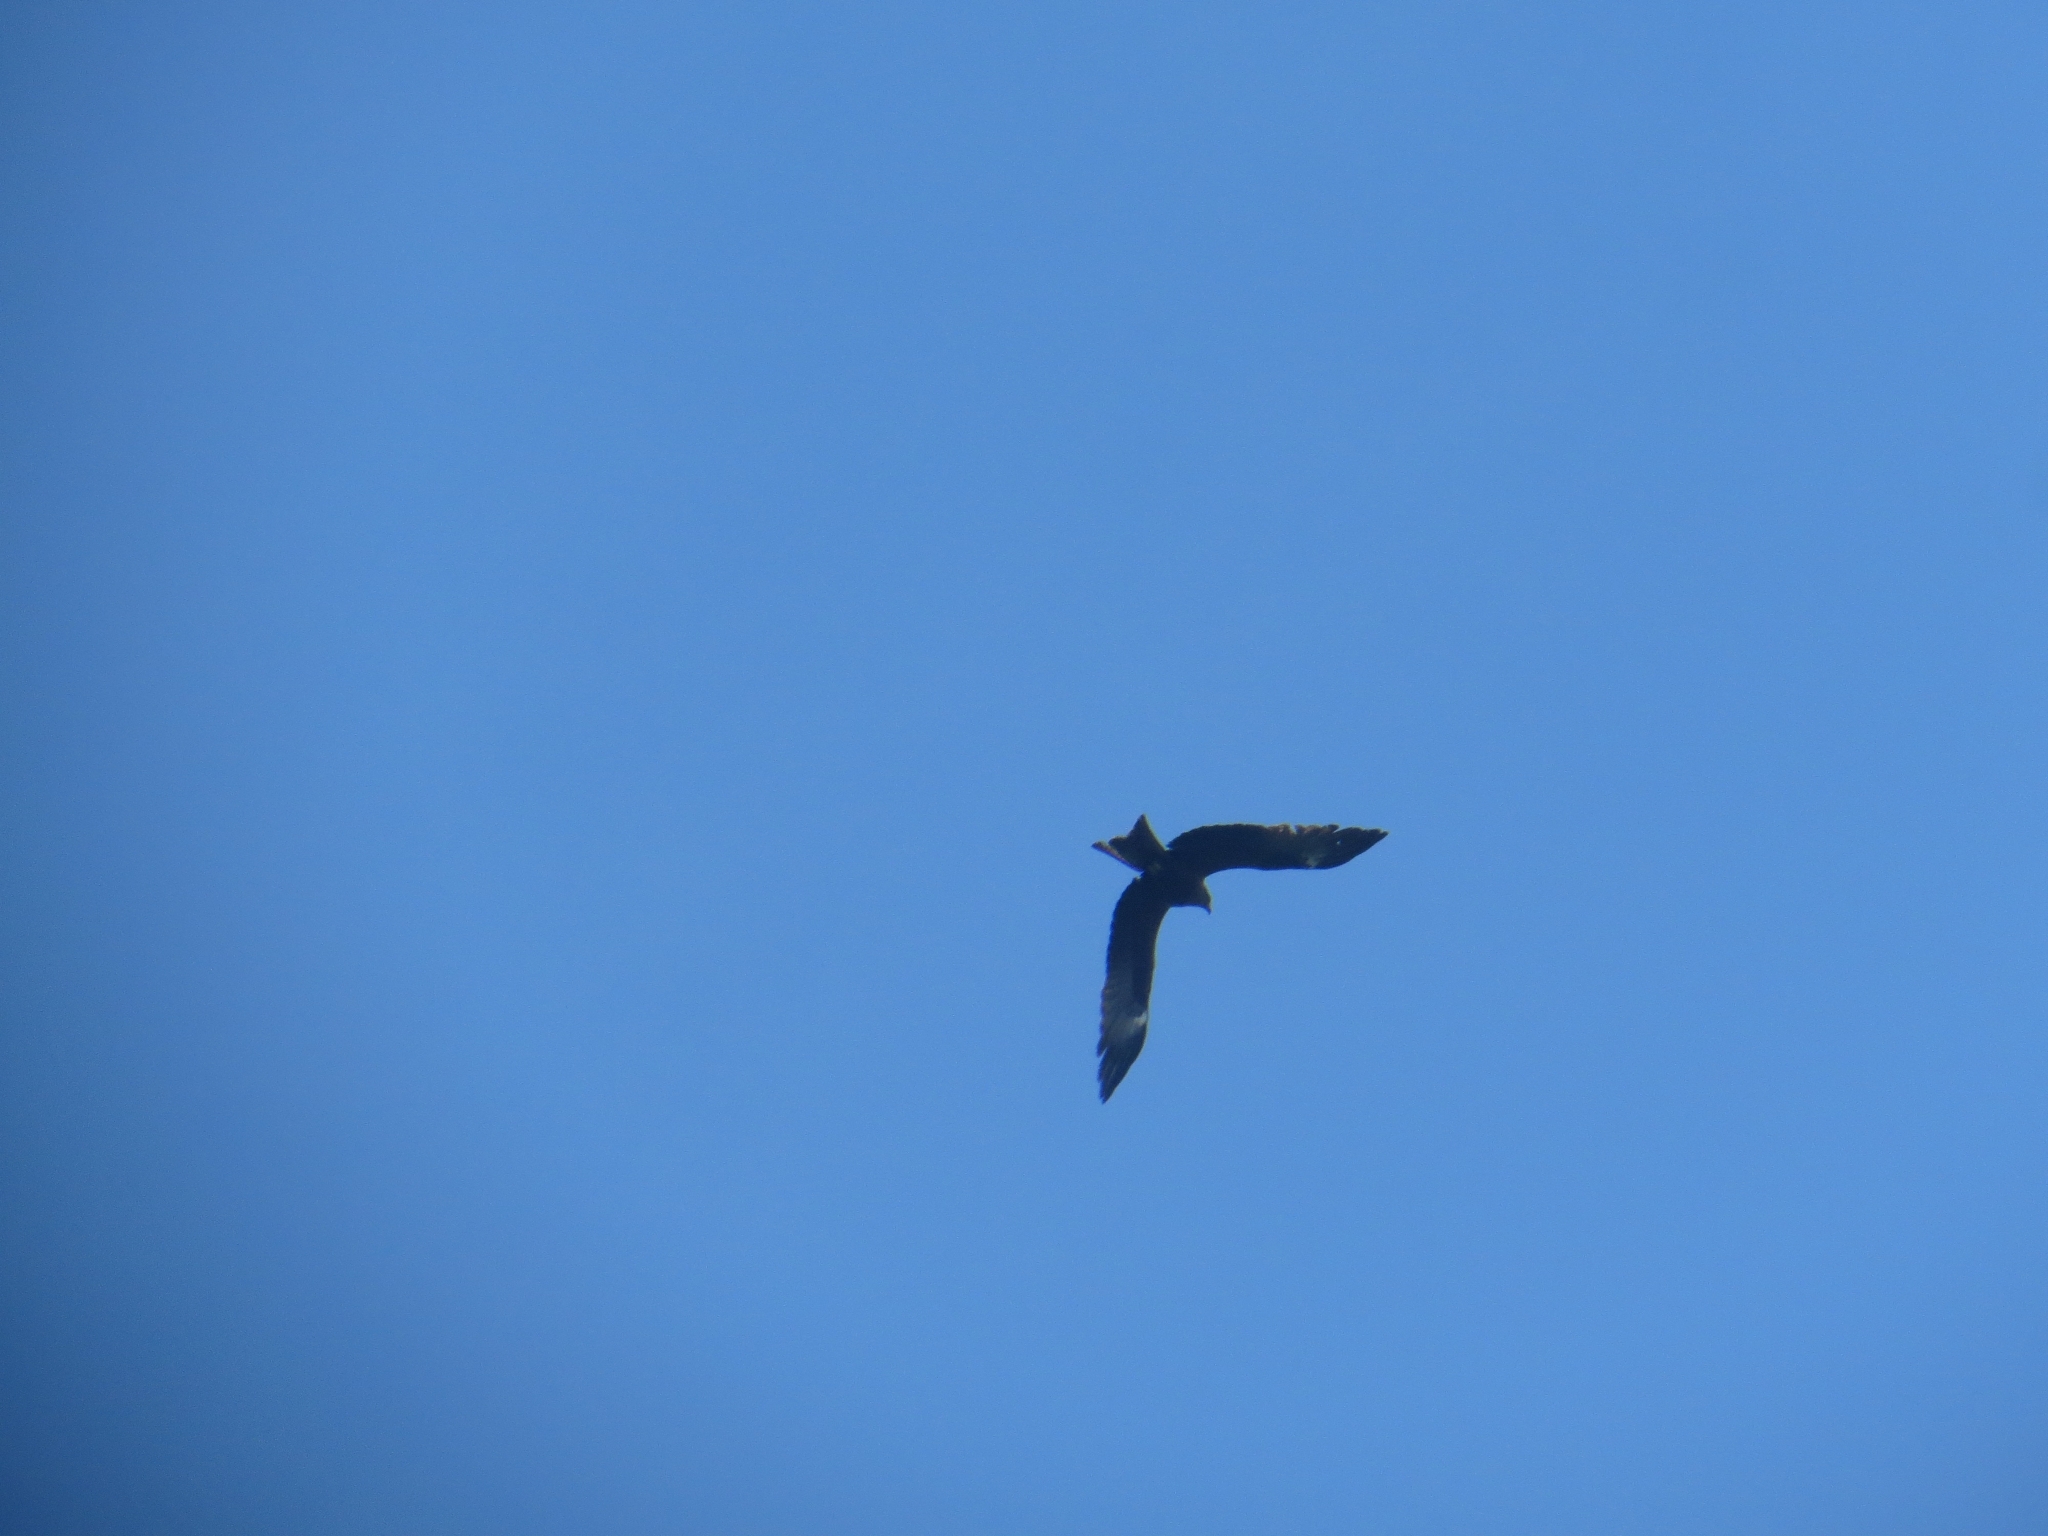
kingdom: Animalia
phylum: Chordata
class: Aves
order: Accipitriformes
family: Accipitridae
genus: Milvus
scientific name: Milvus migrans
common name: Black kite
